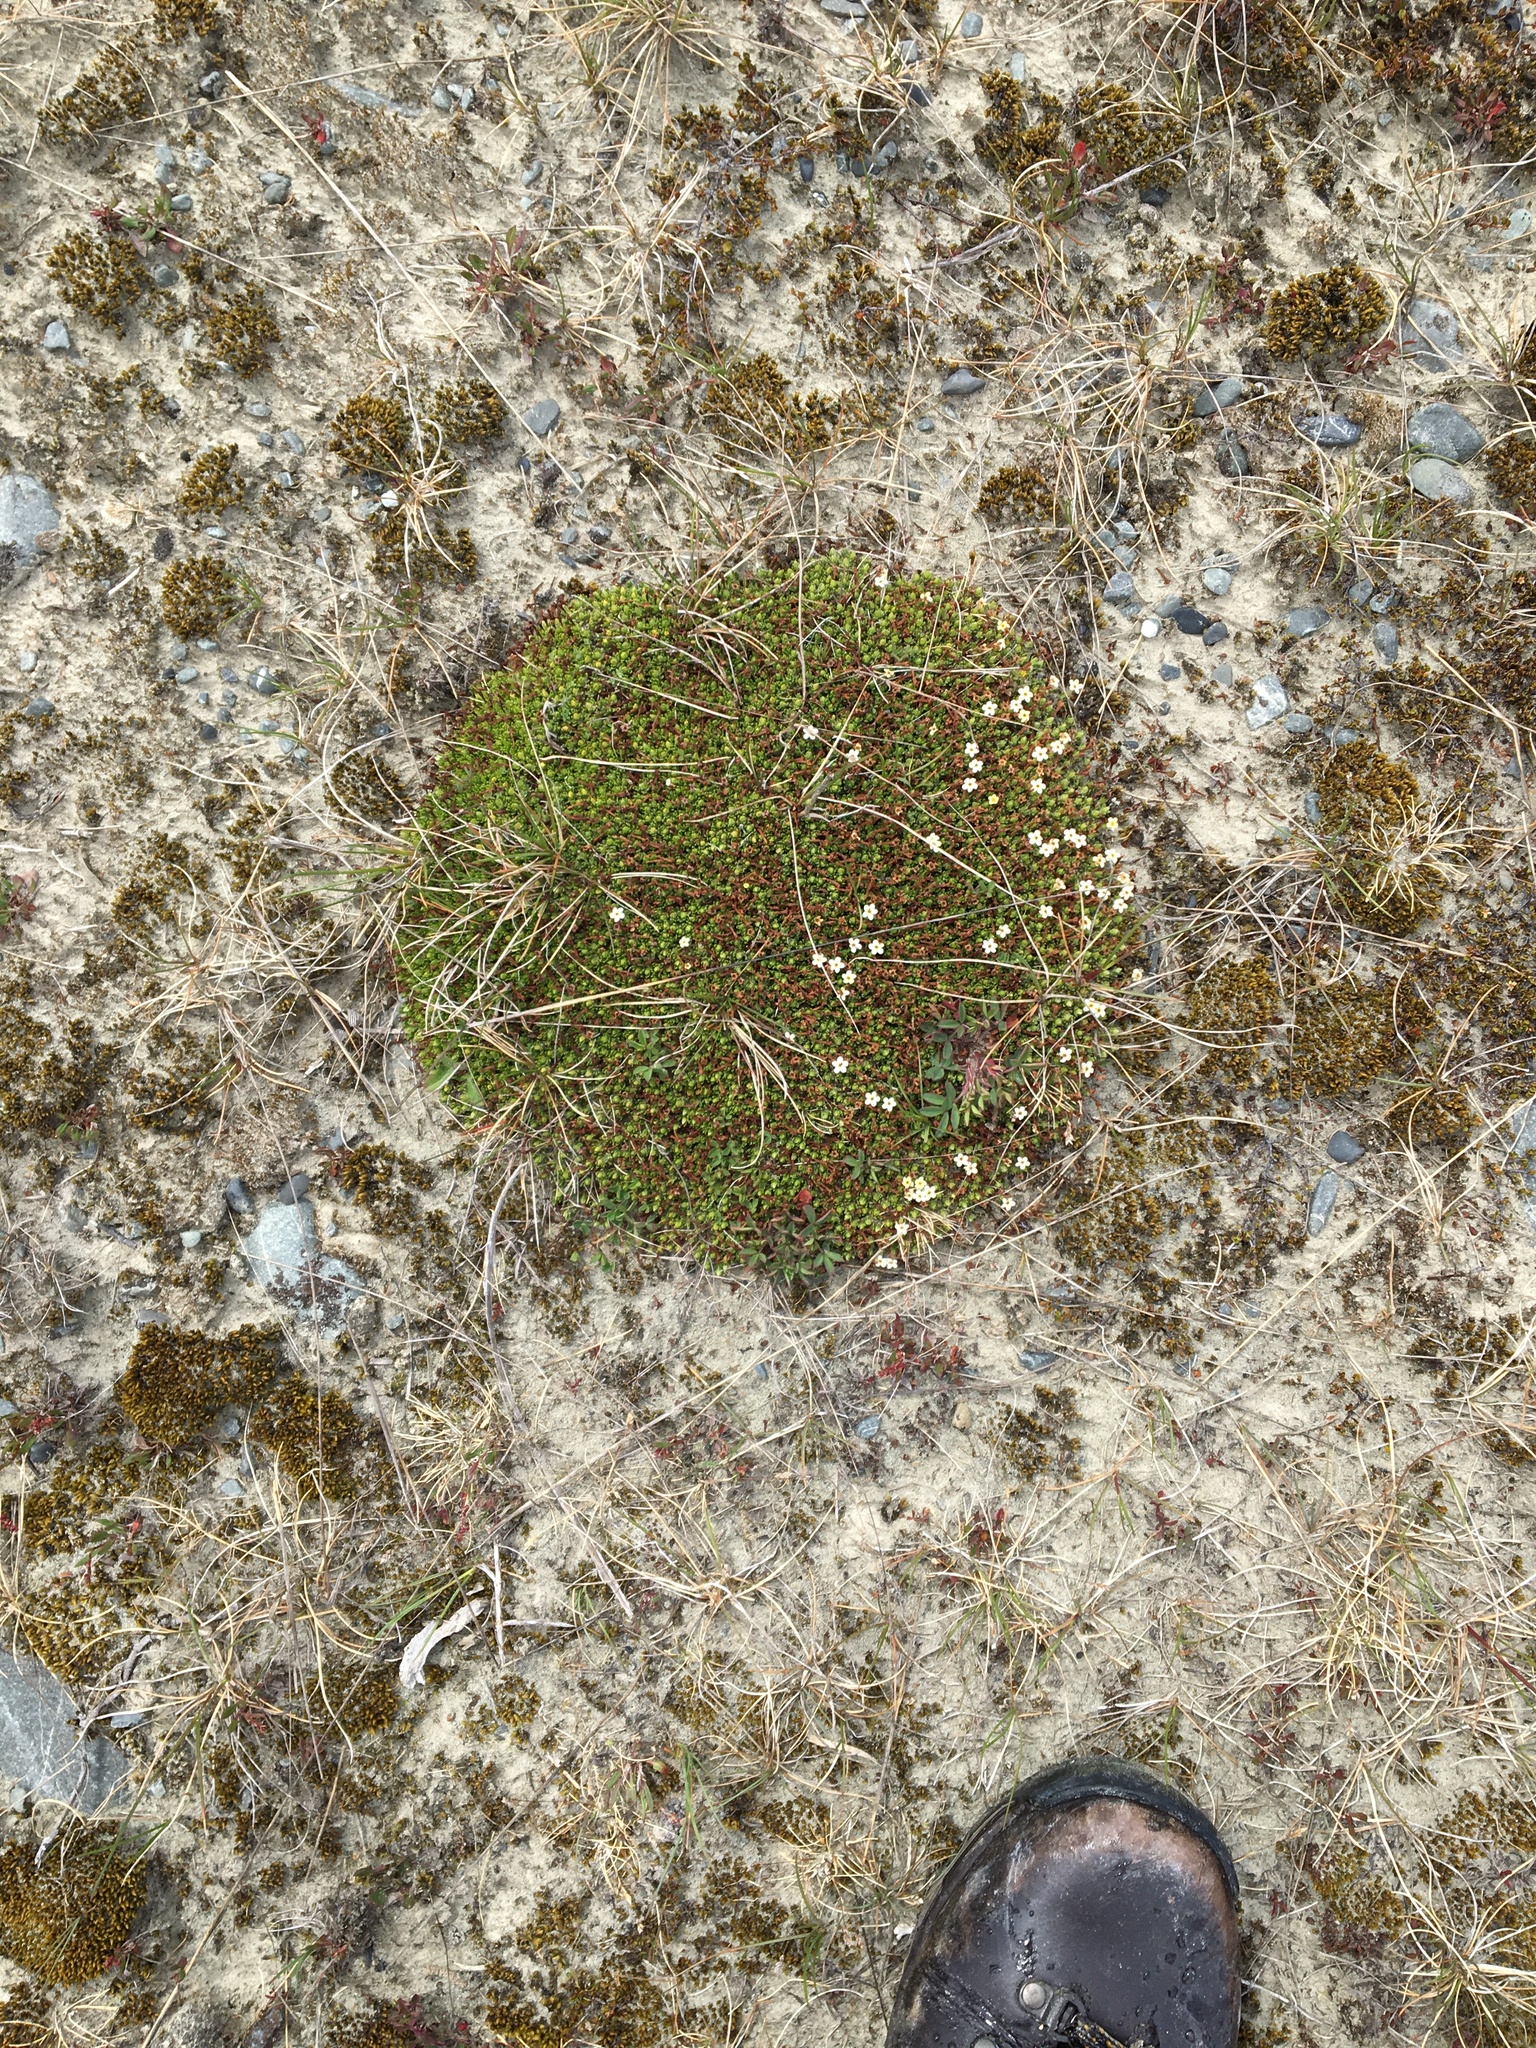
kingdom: Plantae
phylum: Tracheophyta
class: Magnoliopsida
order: Boraginales
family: Boraginaceae
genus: Myosotis
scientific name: Myosotis uniflora
